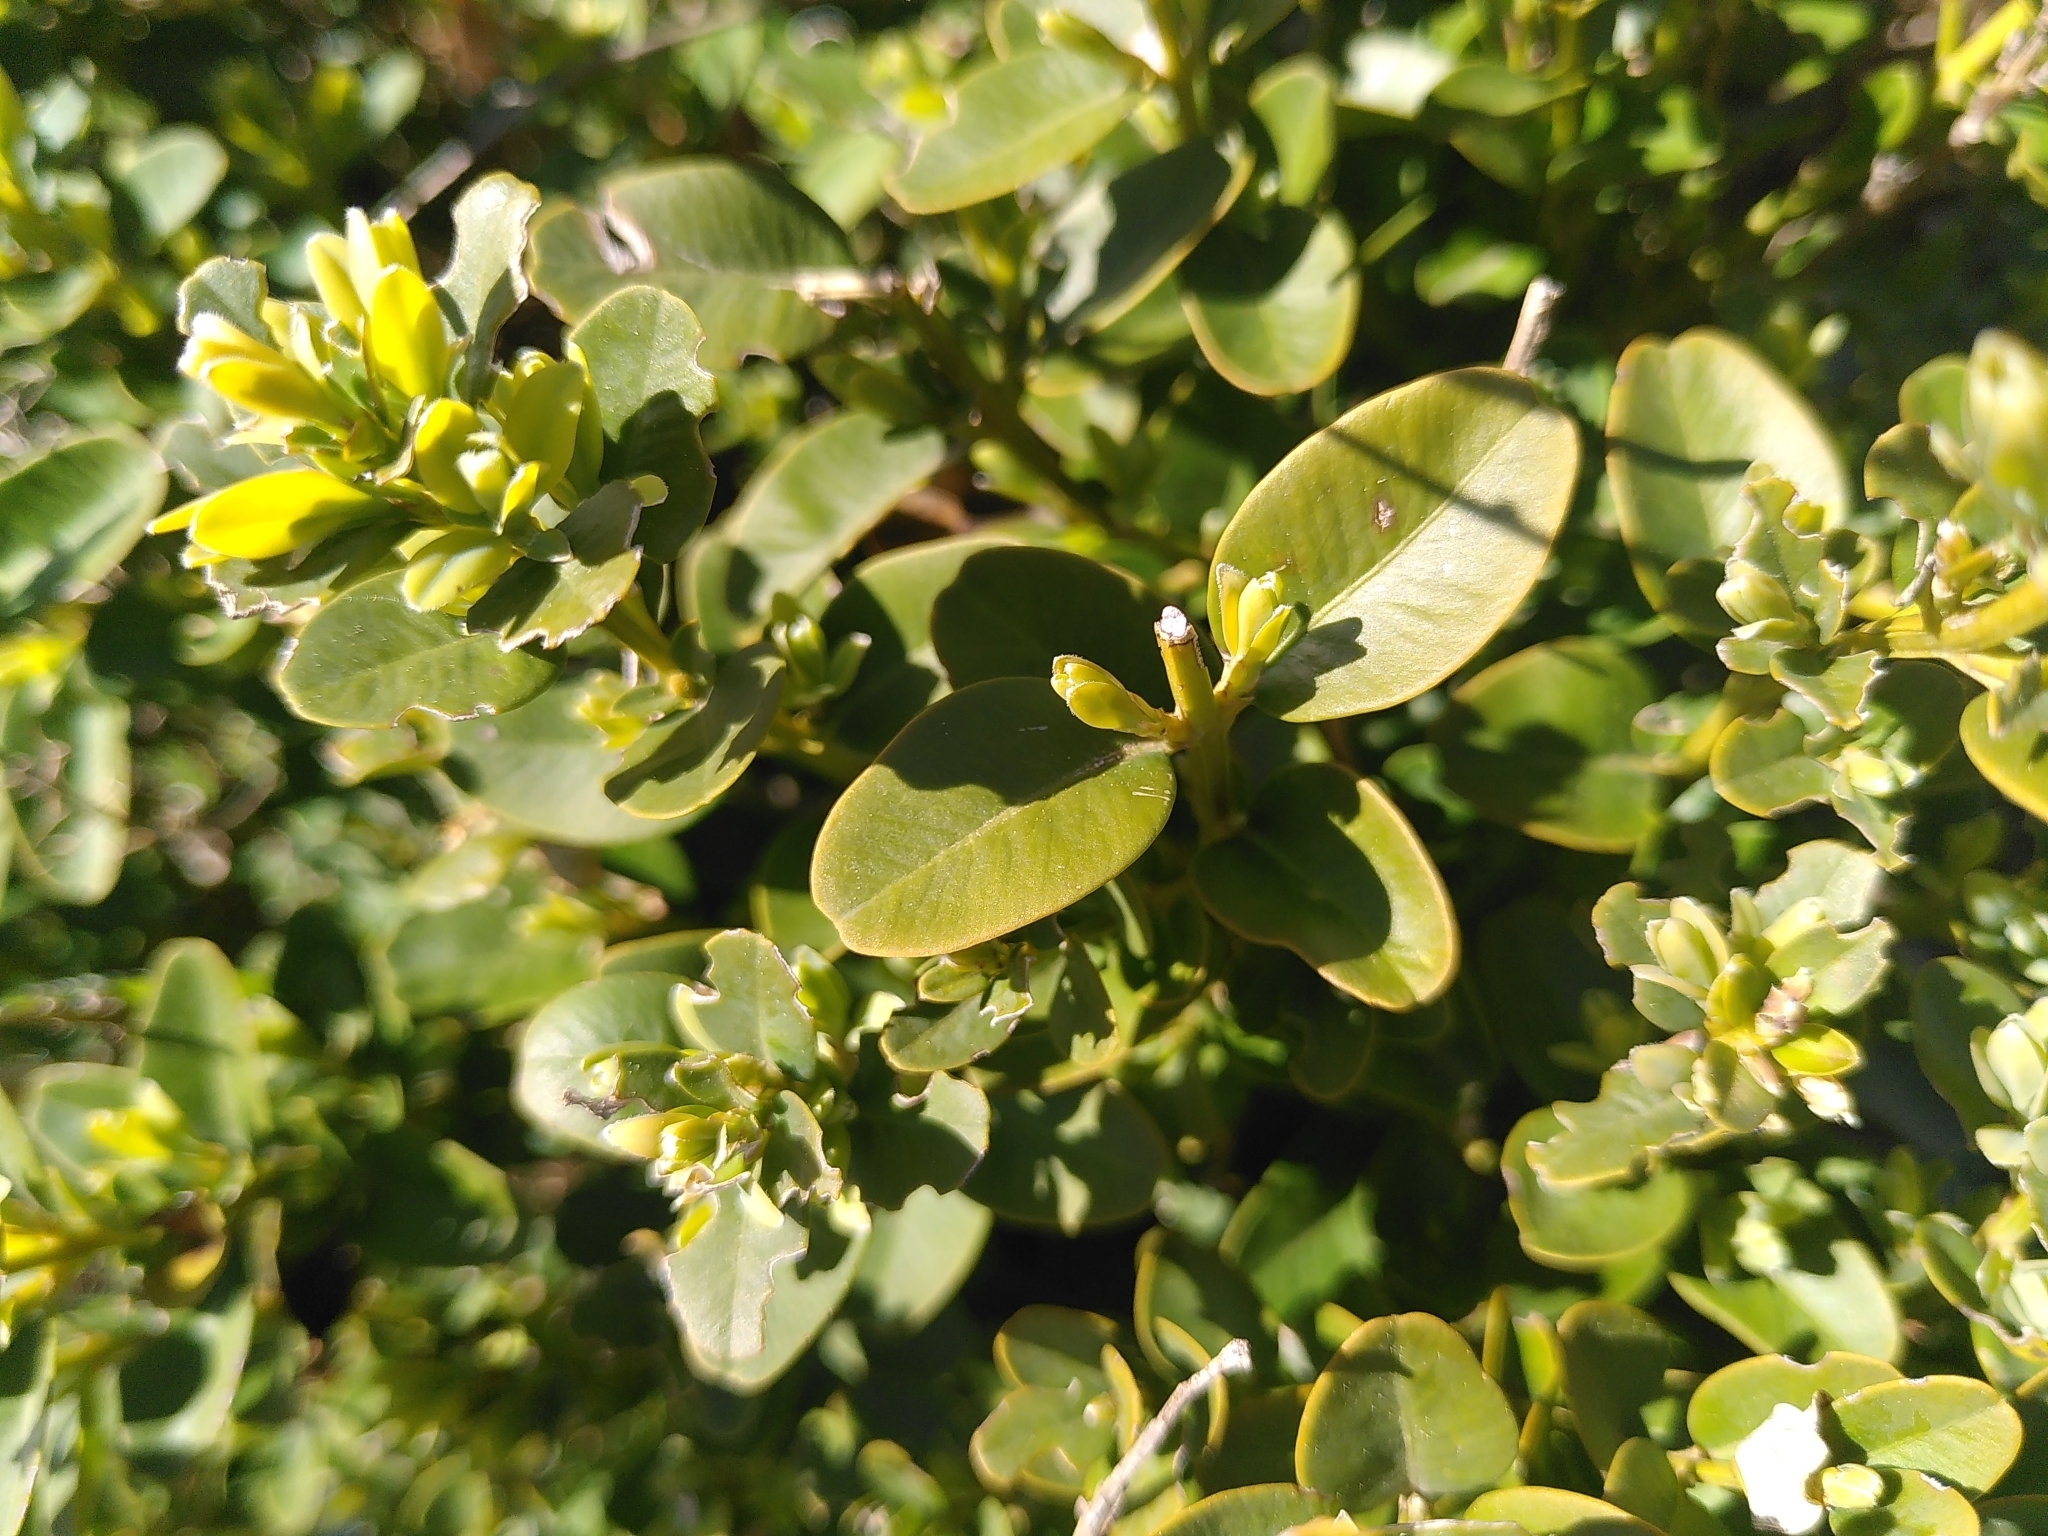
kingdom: Plantae
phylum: Tracheophyta
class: Magnoliopsida
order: Buxales
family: Buxaceae
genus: Buxus
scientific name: Buxus sempervirens
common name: Box
